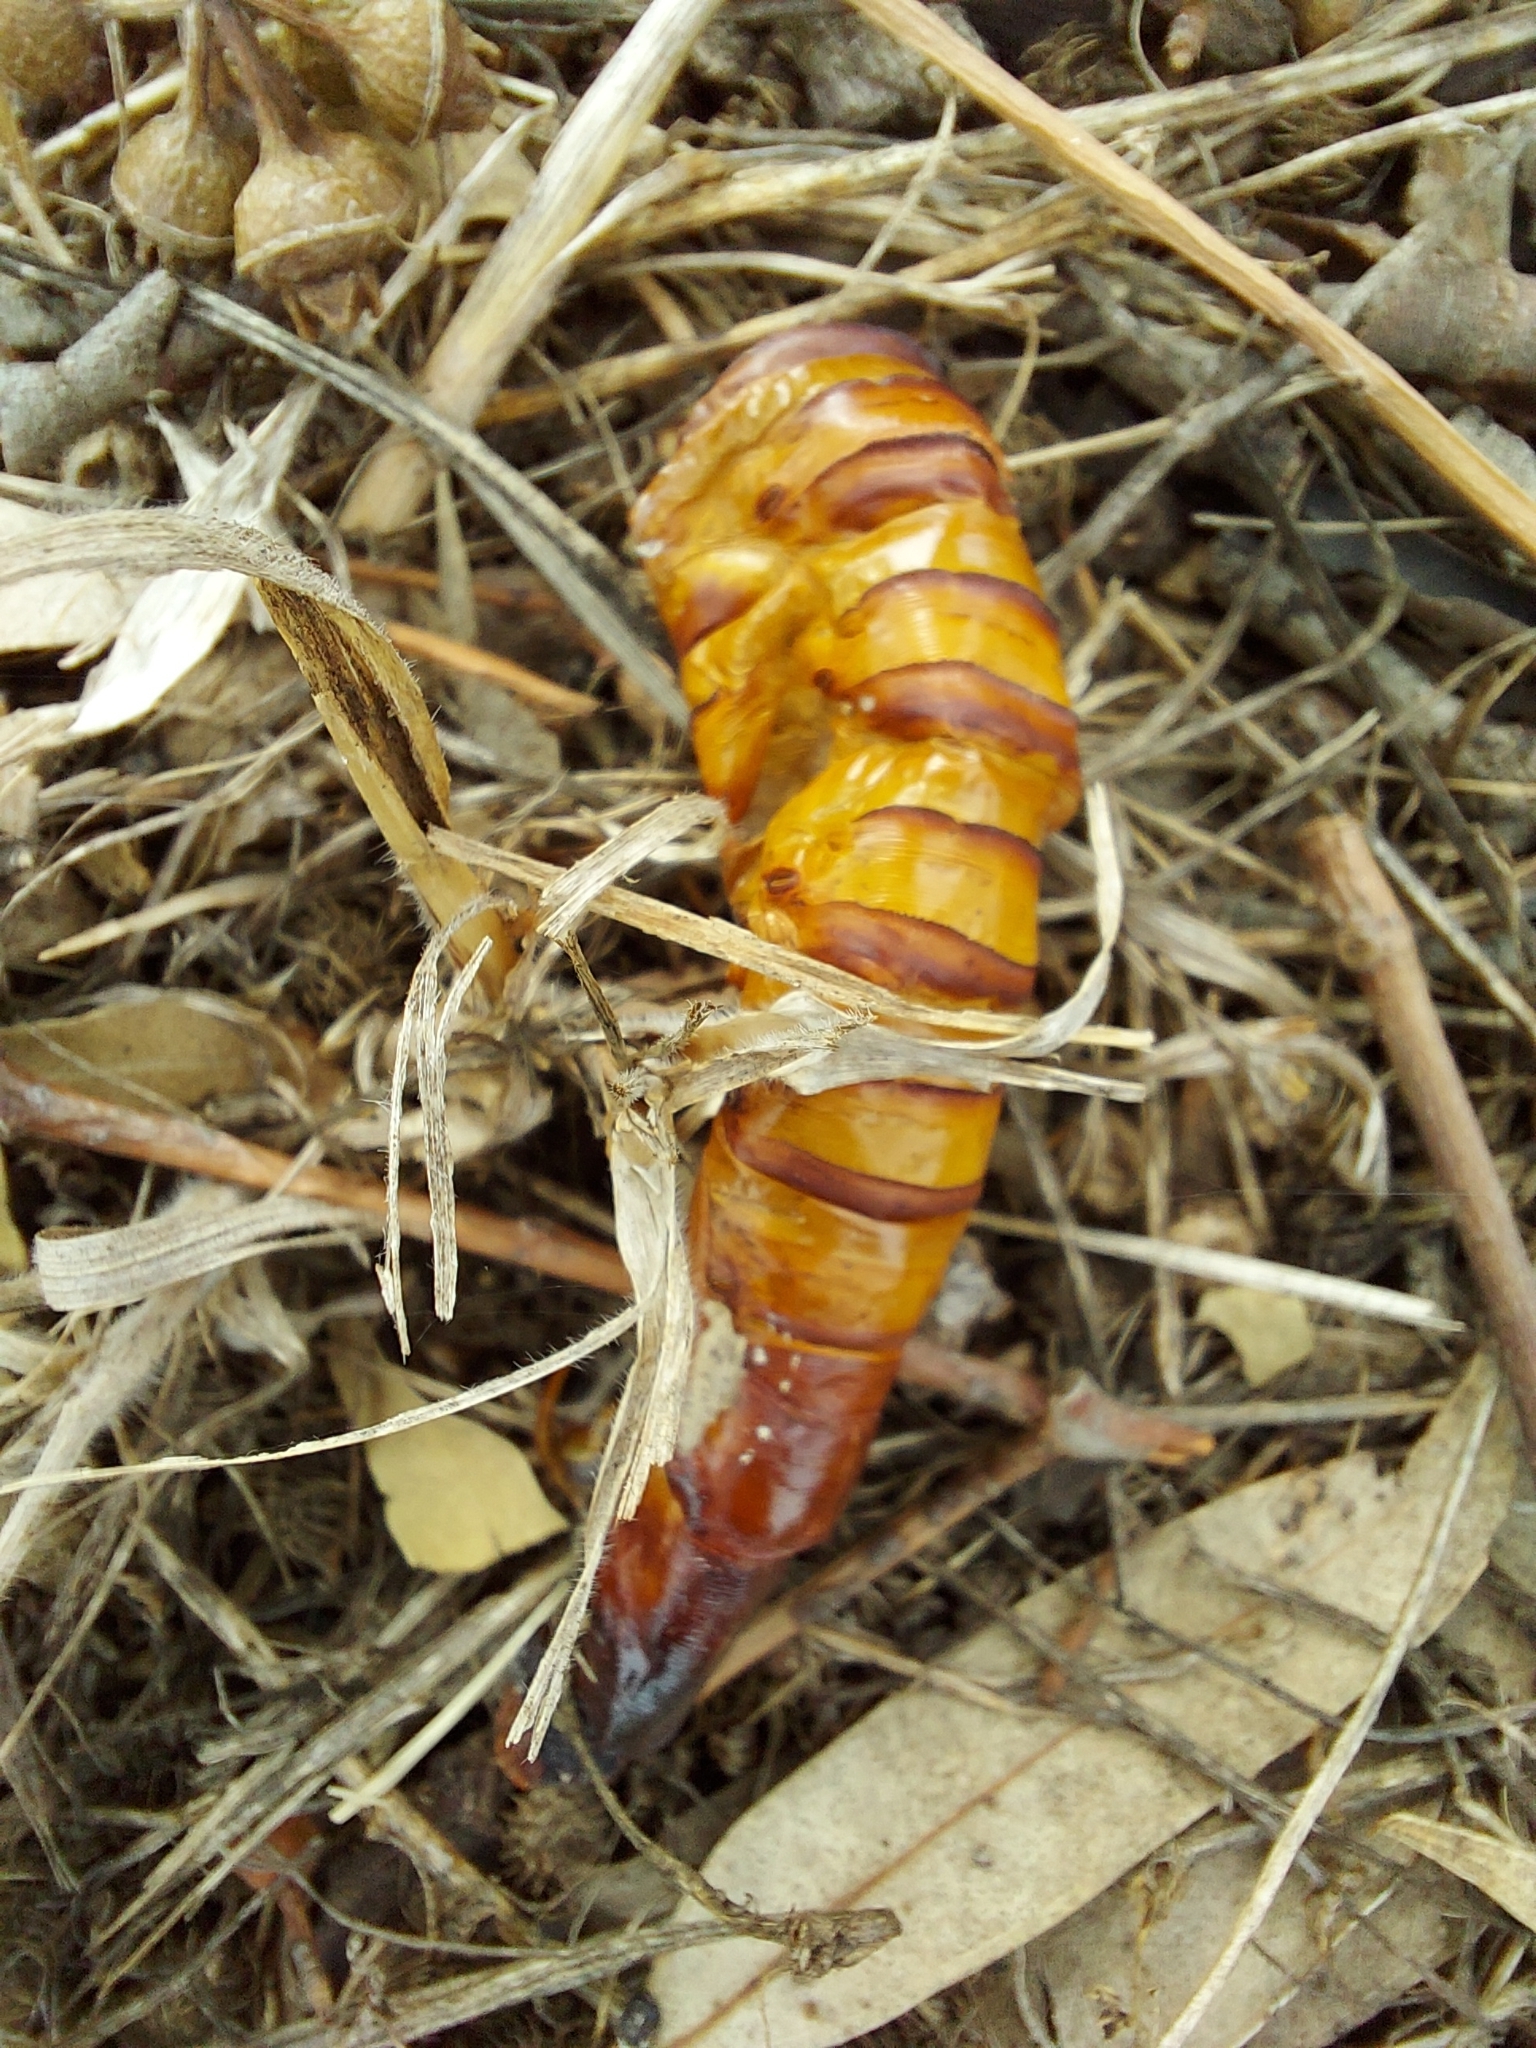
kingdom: Animalia
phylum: Arthropoda
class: Insecta
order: Lepidoptera
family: Hepialidae
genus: Abantiades
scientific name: Abantiades atripalpis
